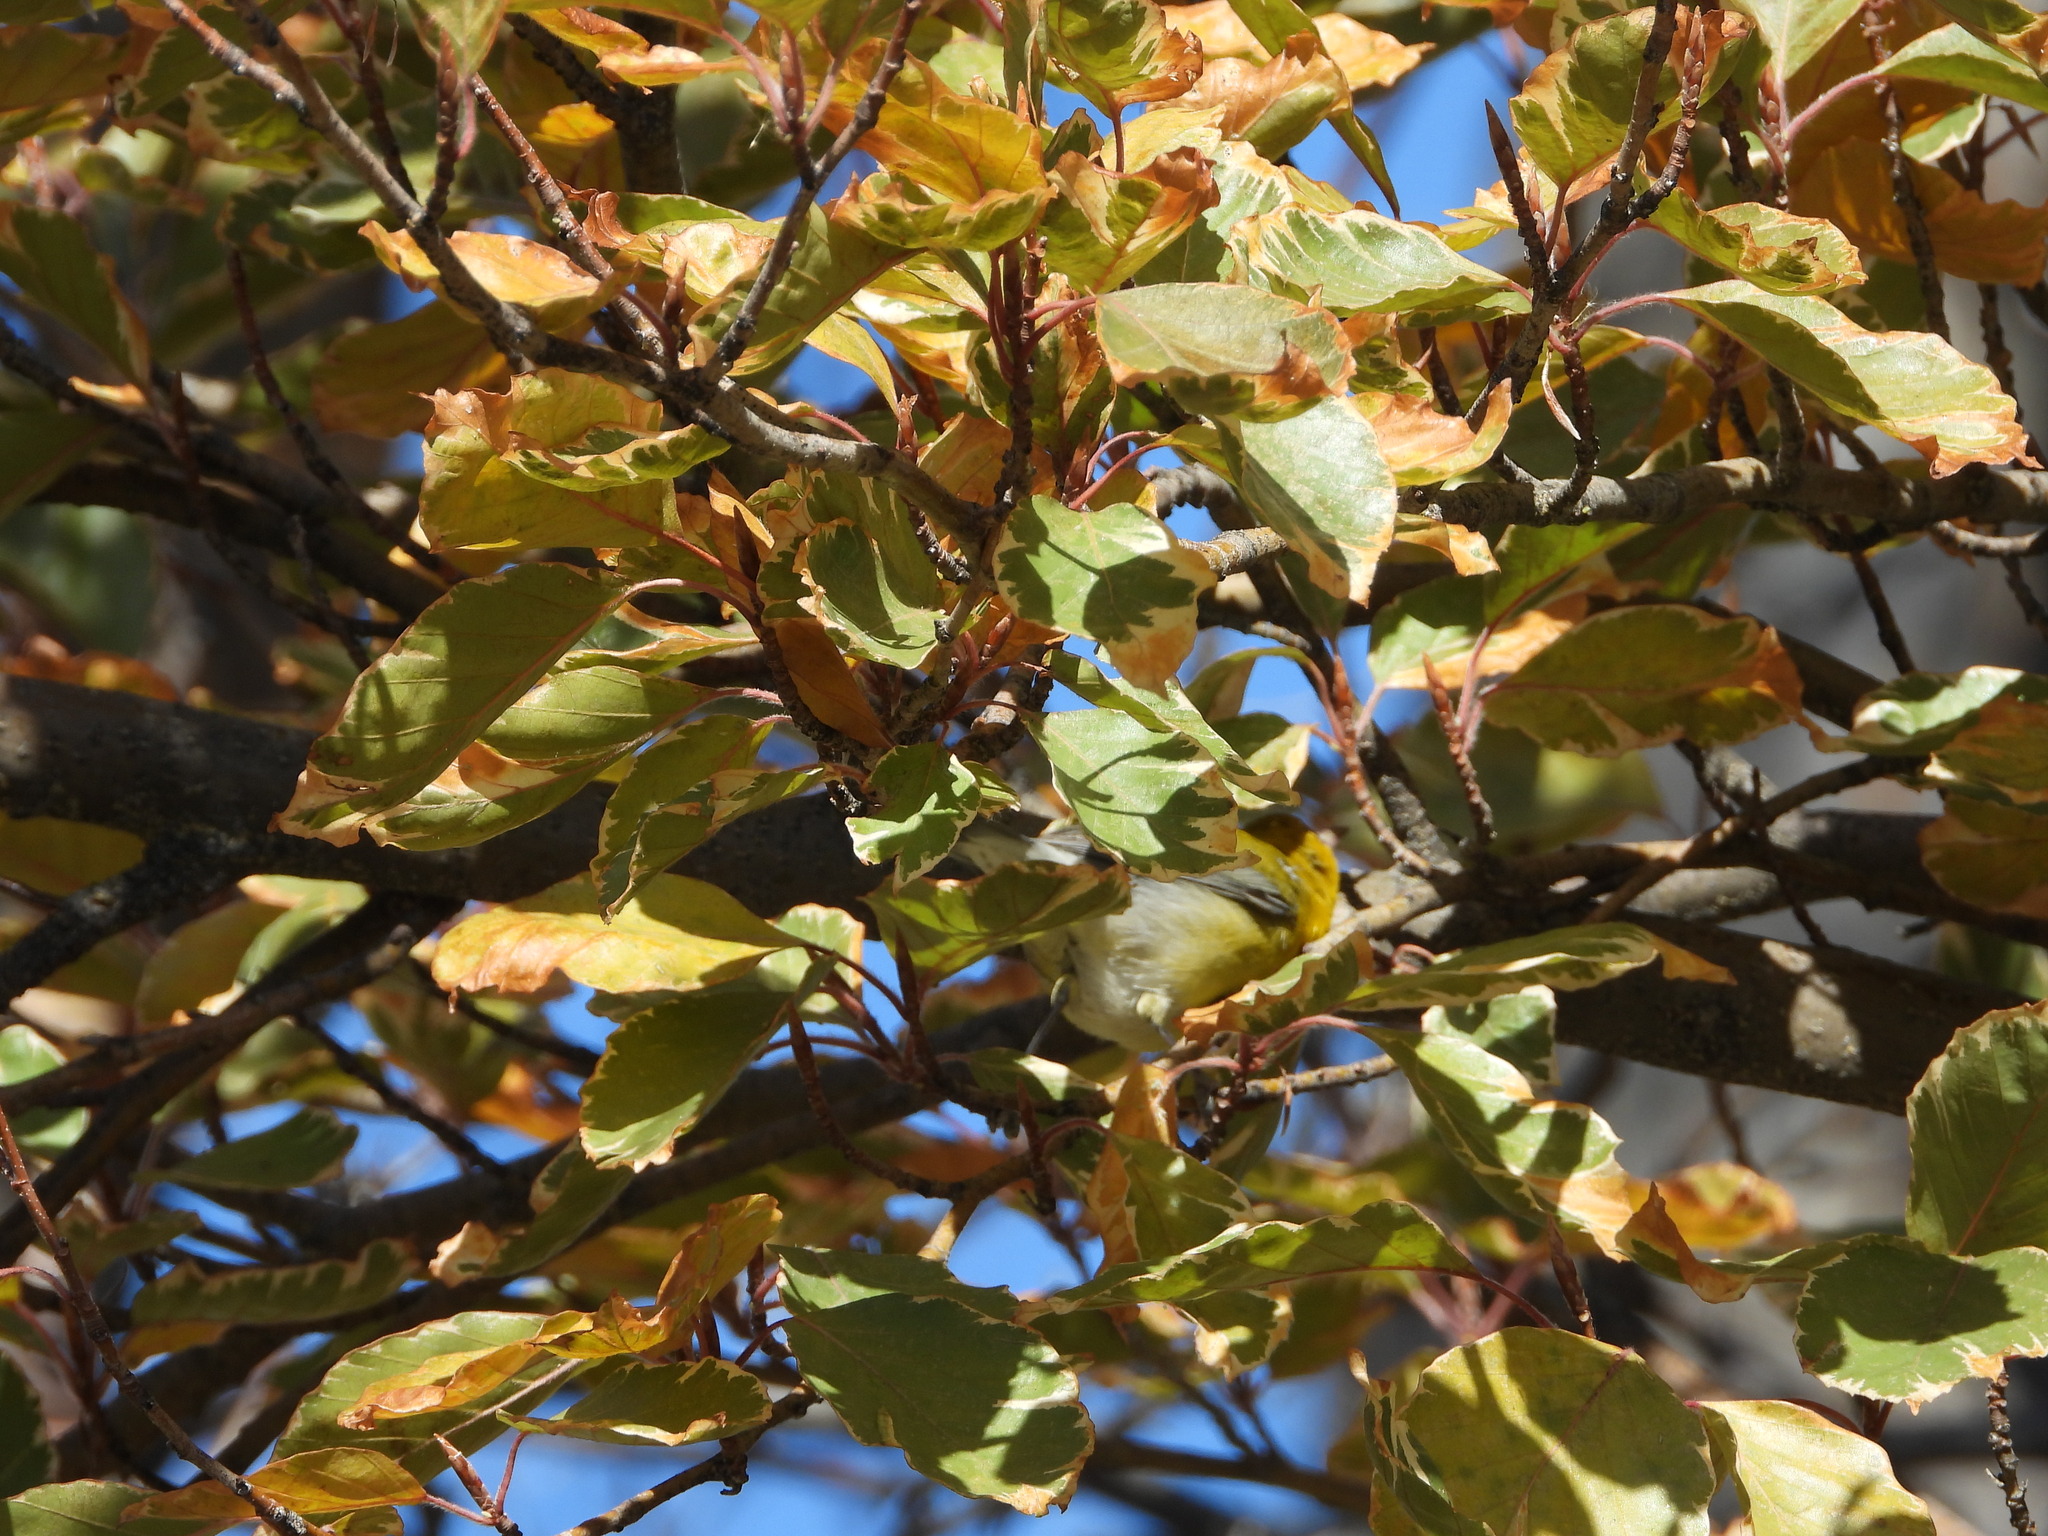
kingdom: Animalia
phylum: Chordata
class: Aves
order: Passeriformes
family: Parulidae
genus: Protonotaria
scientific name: Protonotaria citrea
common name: Prothonotary warbler
